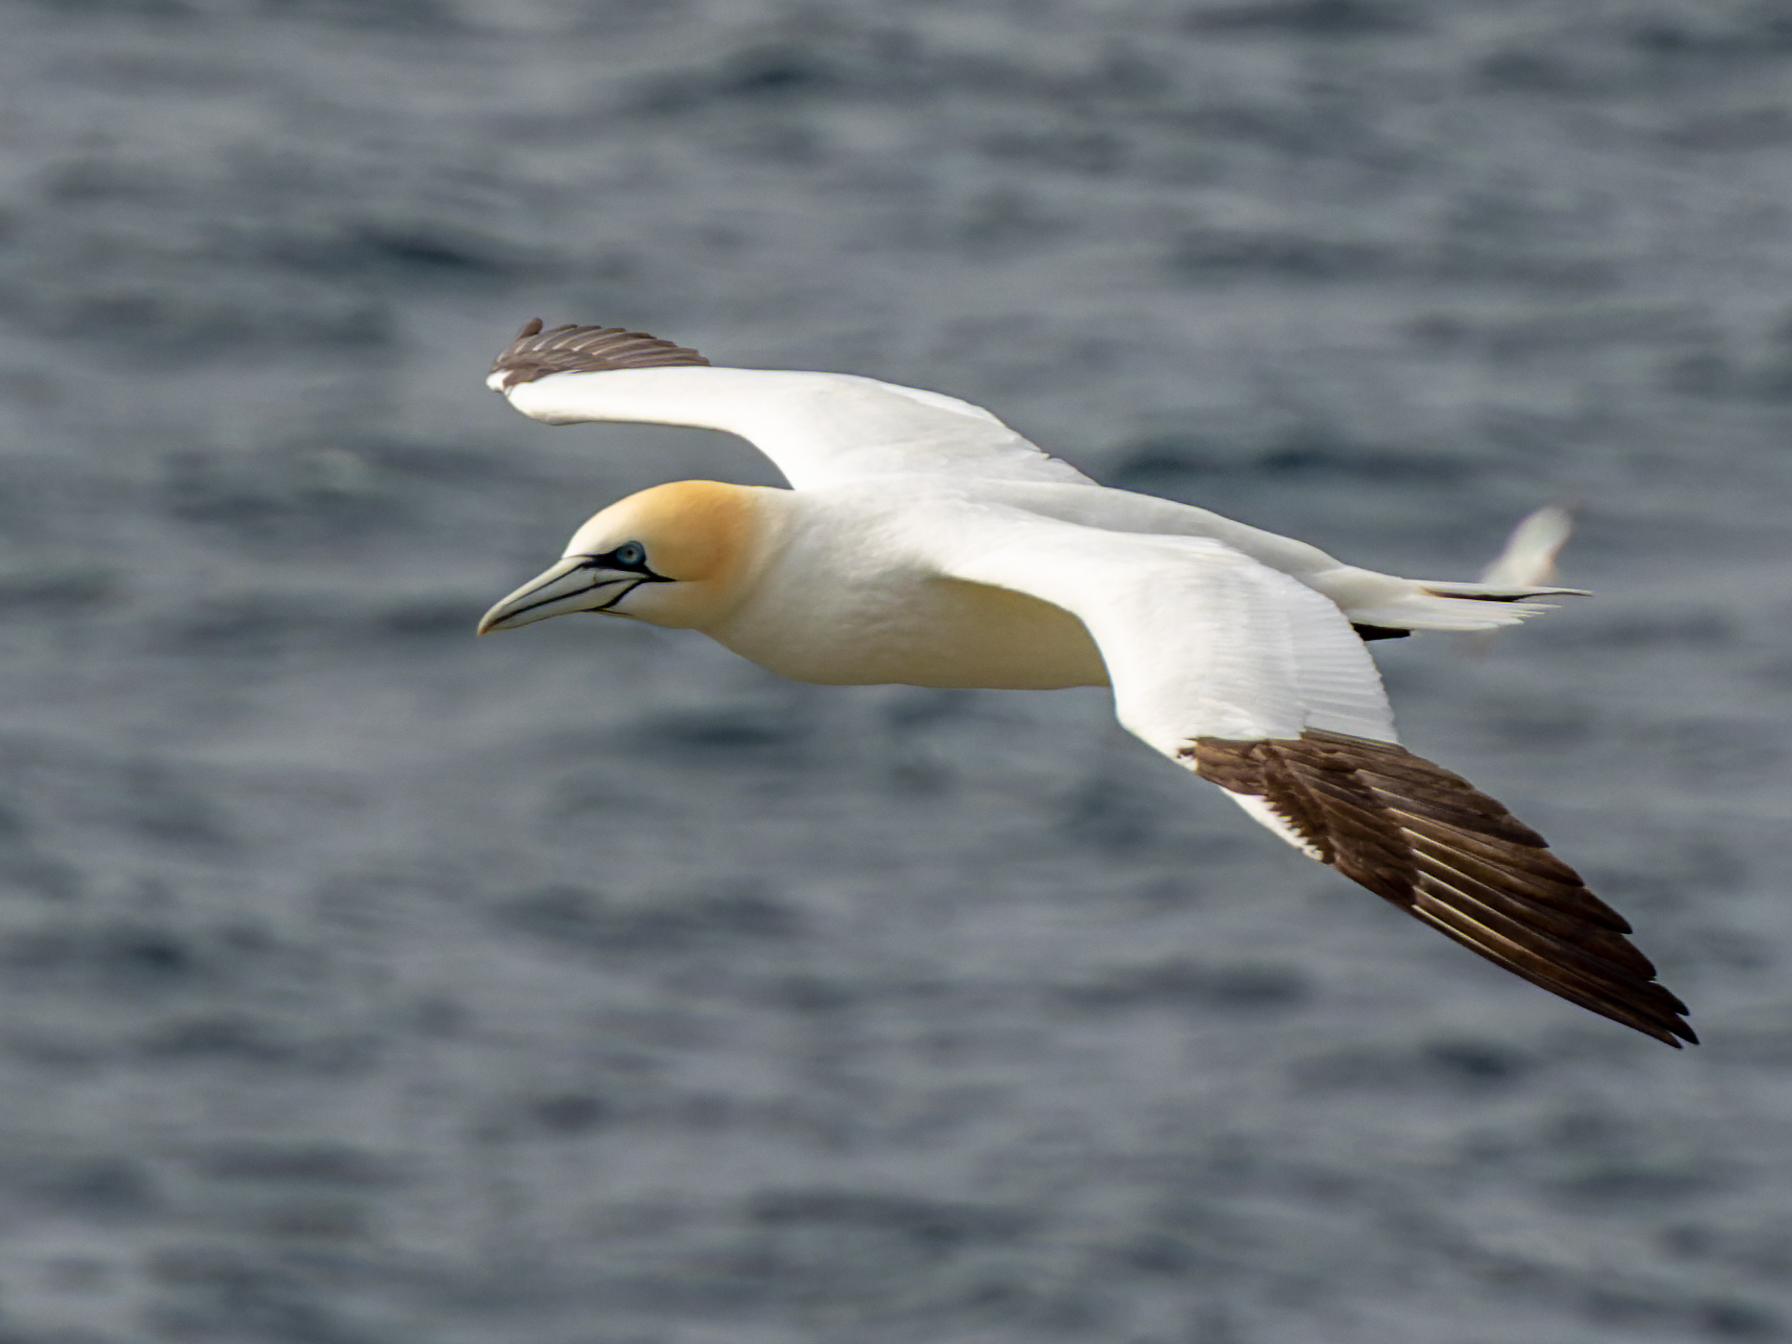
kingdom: Animalia
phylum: Chordata
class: Aves
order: Suliformes
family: Sulidae
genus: Morus
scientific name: Morus bassanus
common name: Northern gannet
